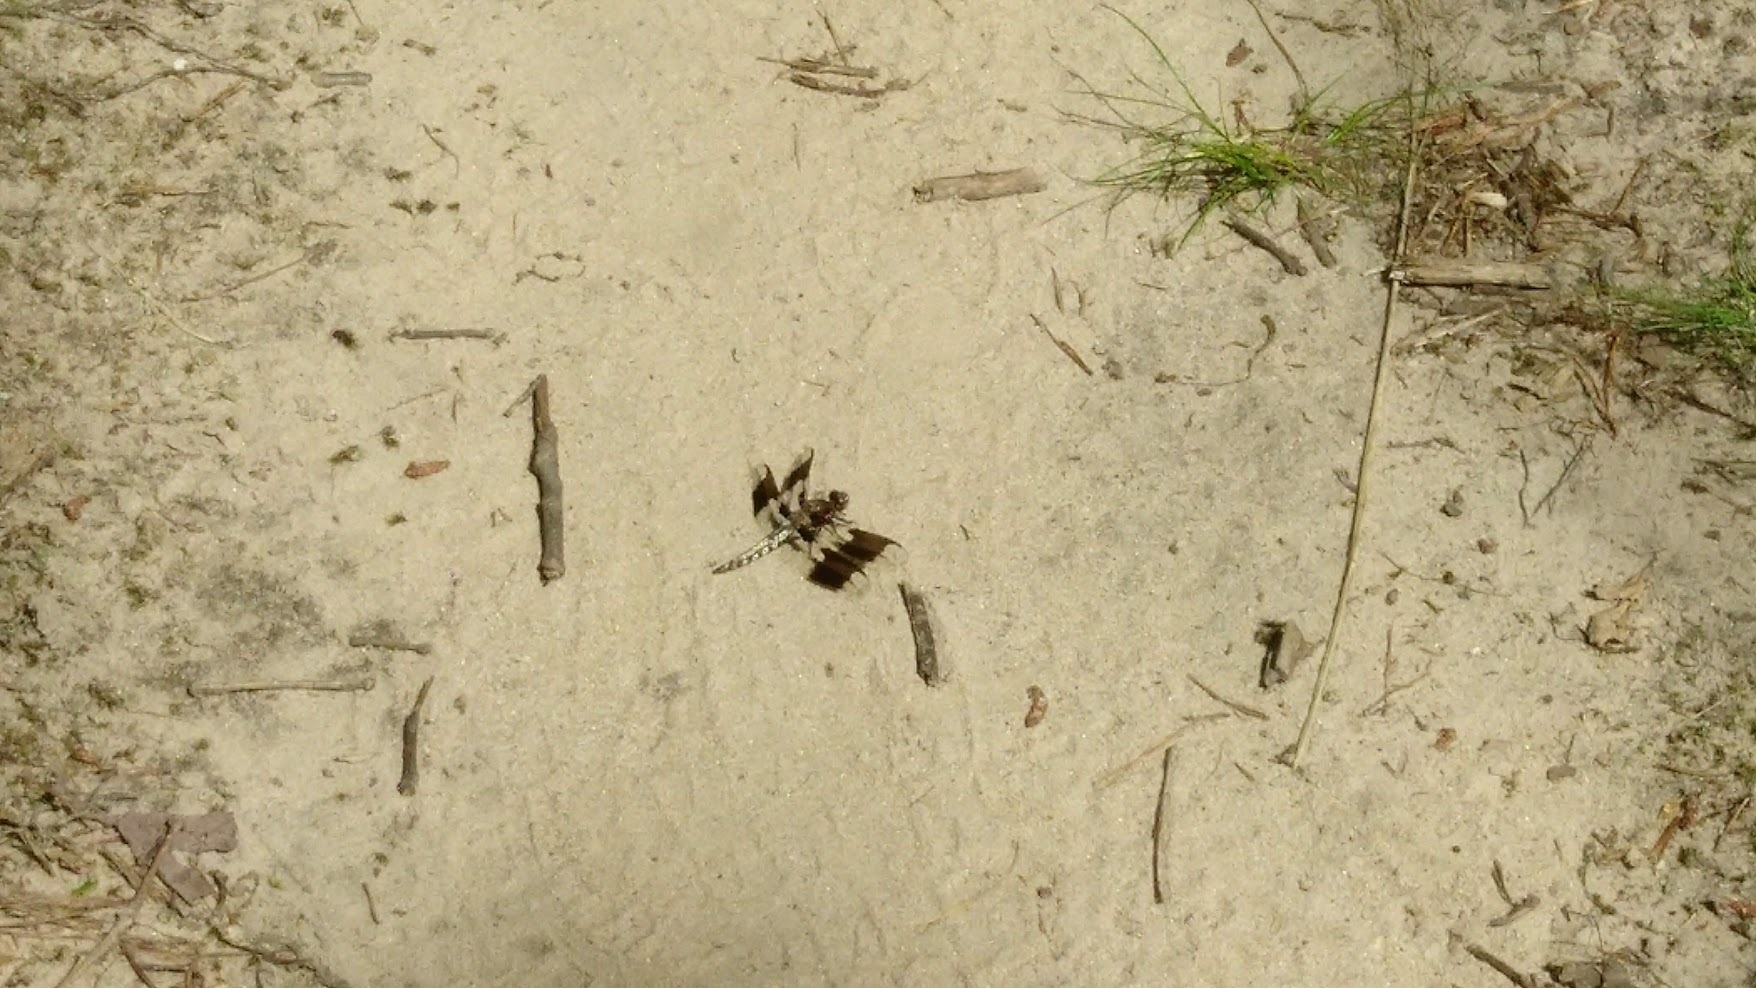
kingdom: Animalia
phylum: Arthropoda
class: Insecta
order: Odonata
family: Libellulidae
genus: Plathemis
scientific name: Plathemis lydia
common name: Common whitetail
